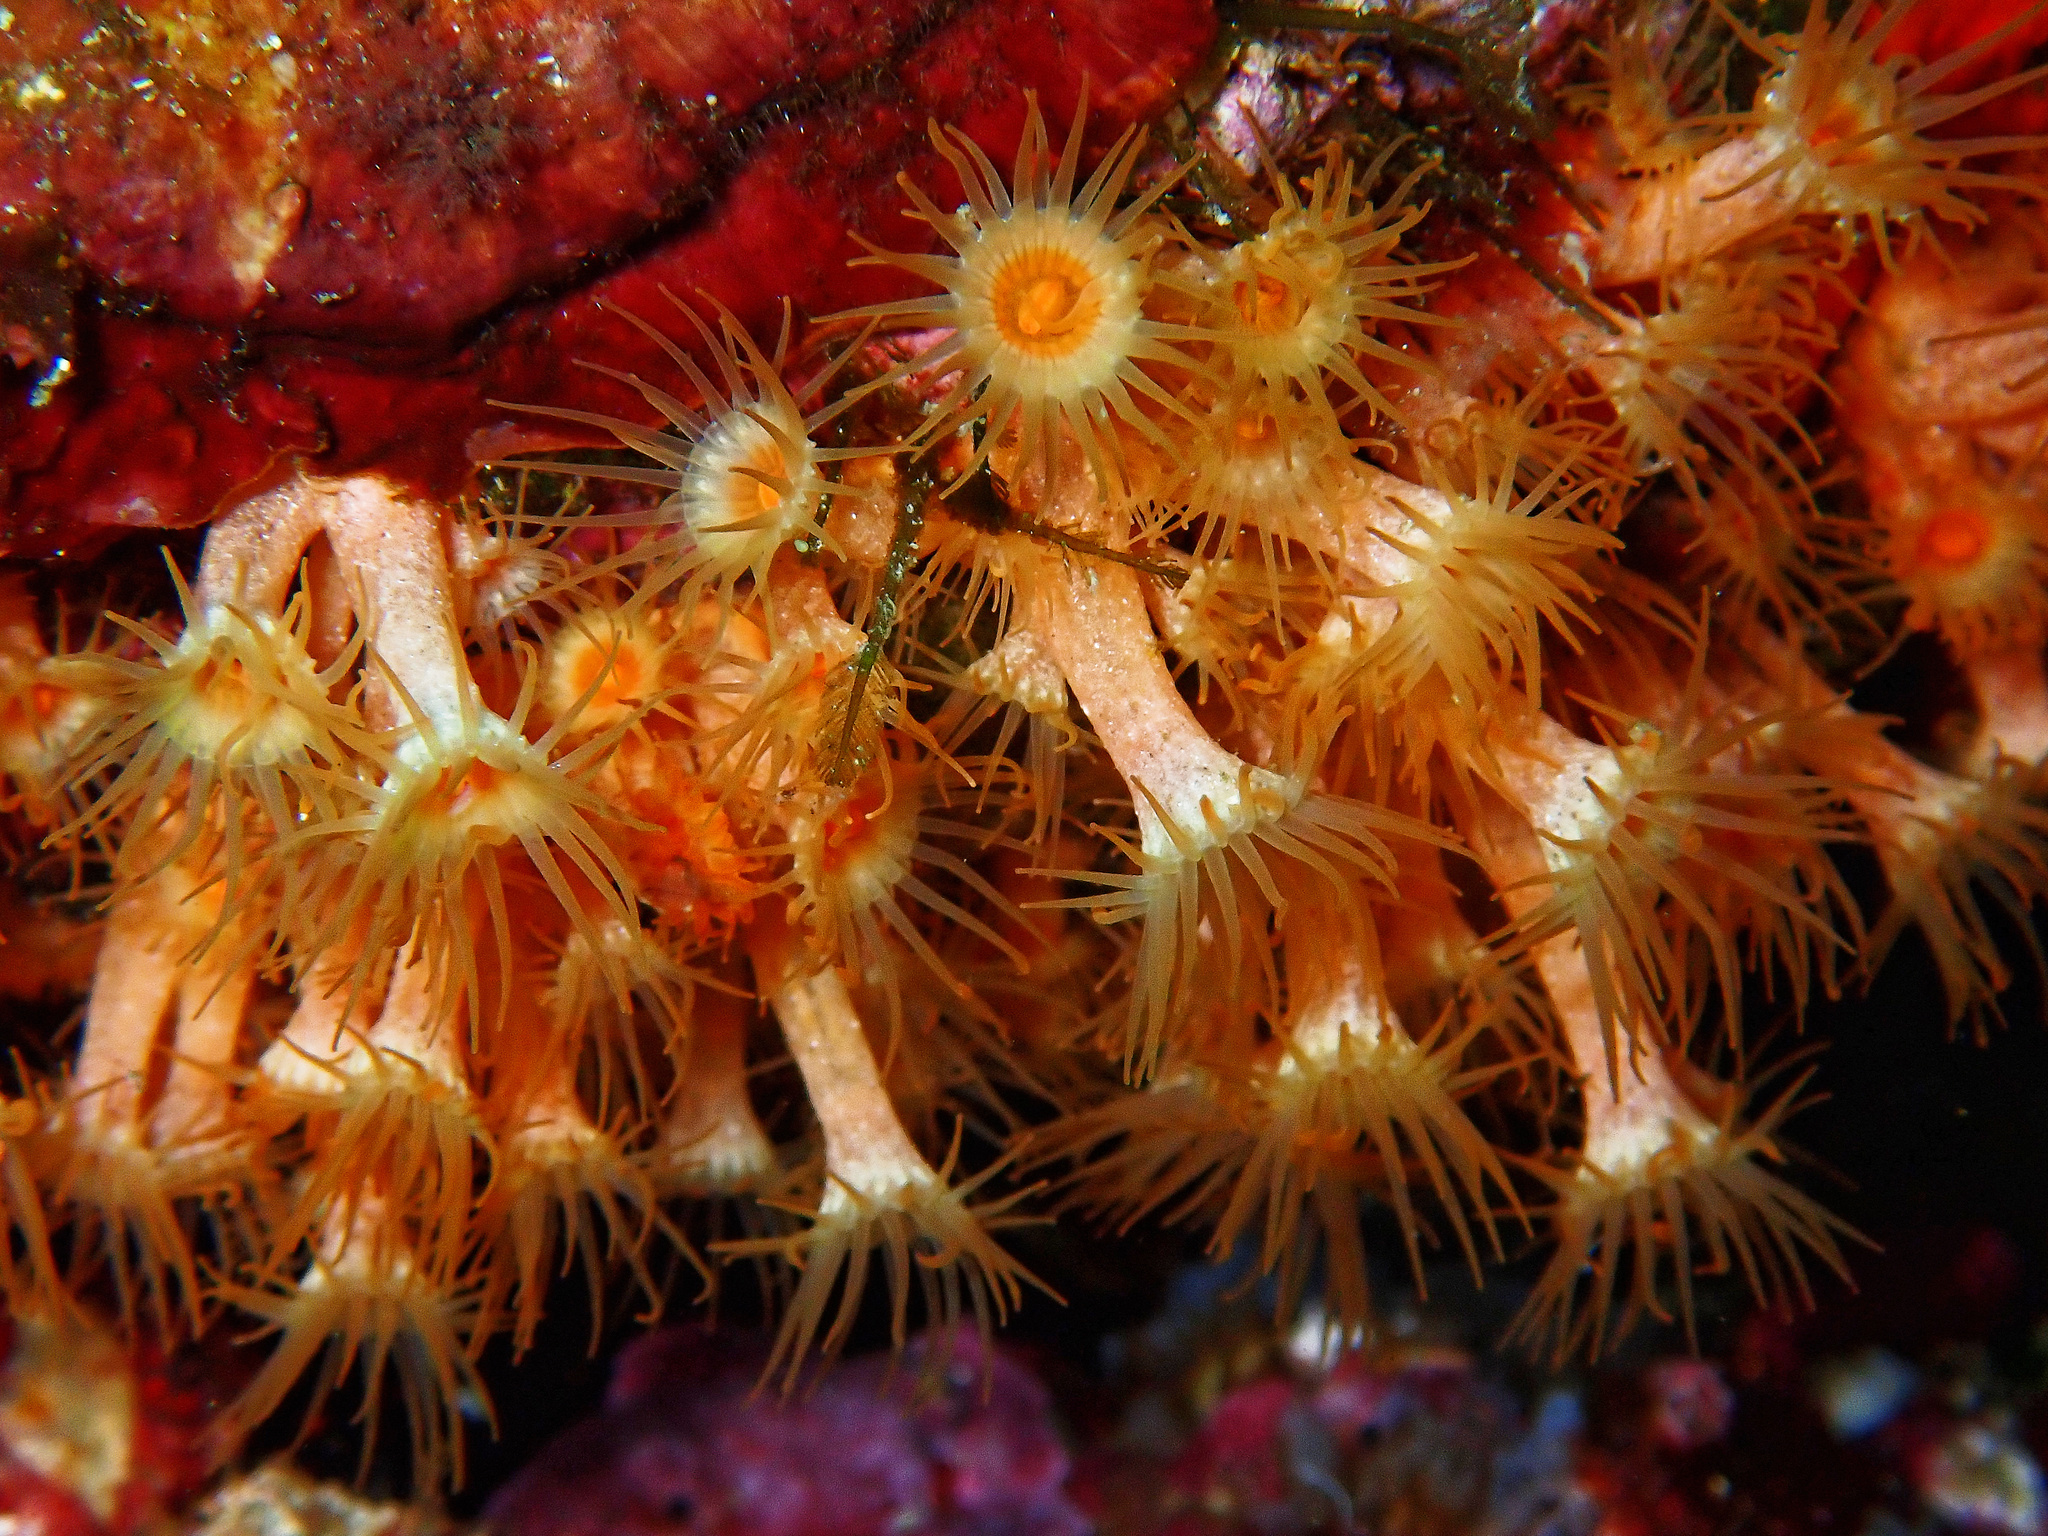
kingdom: Animalia
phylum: Cnidaria
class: Anthozoa
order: Zoantharia
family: Parazoanthidae
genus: Parazoanthus
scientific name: Parazoanthus axinellae
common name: Yellow cluster anemone
